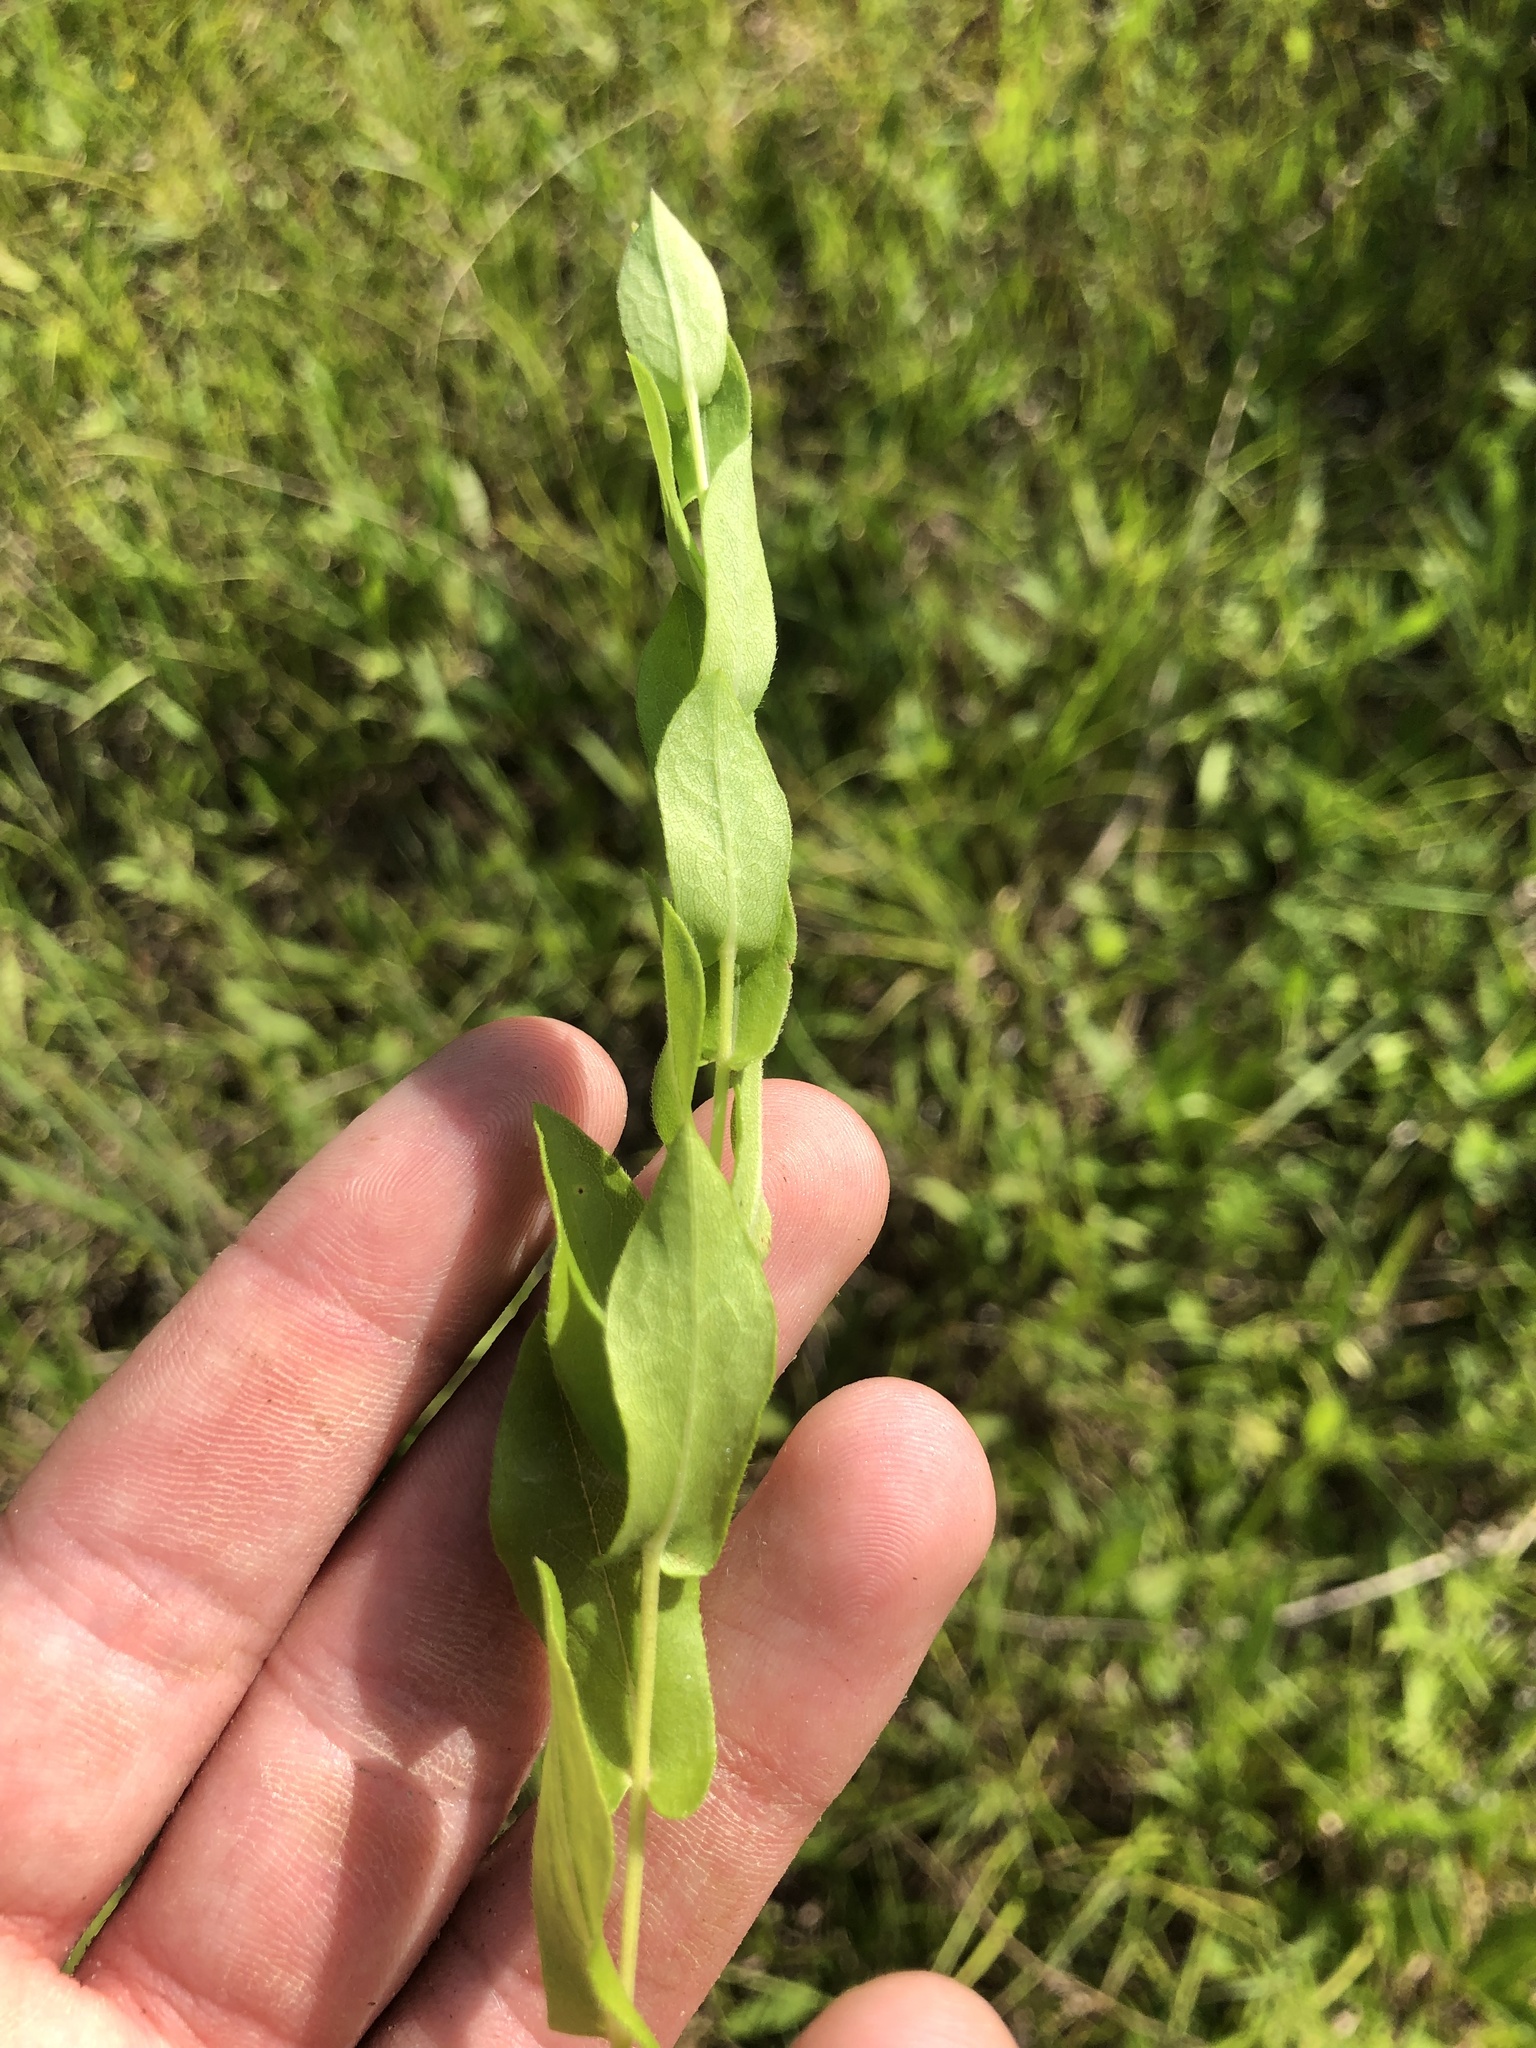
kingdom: Plantae
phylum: Tracheophyta
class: Magnoliopsida
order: Asterales
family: Asteraceae
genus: Symphyotrichum
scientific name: Symphyotrichum patens
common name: Late purple aster
